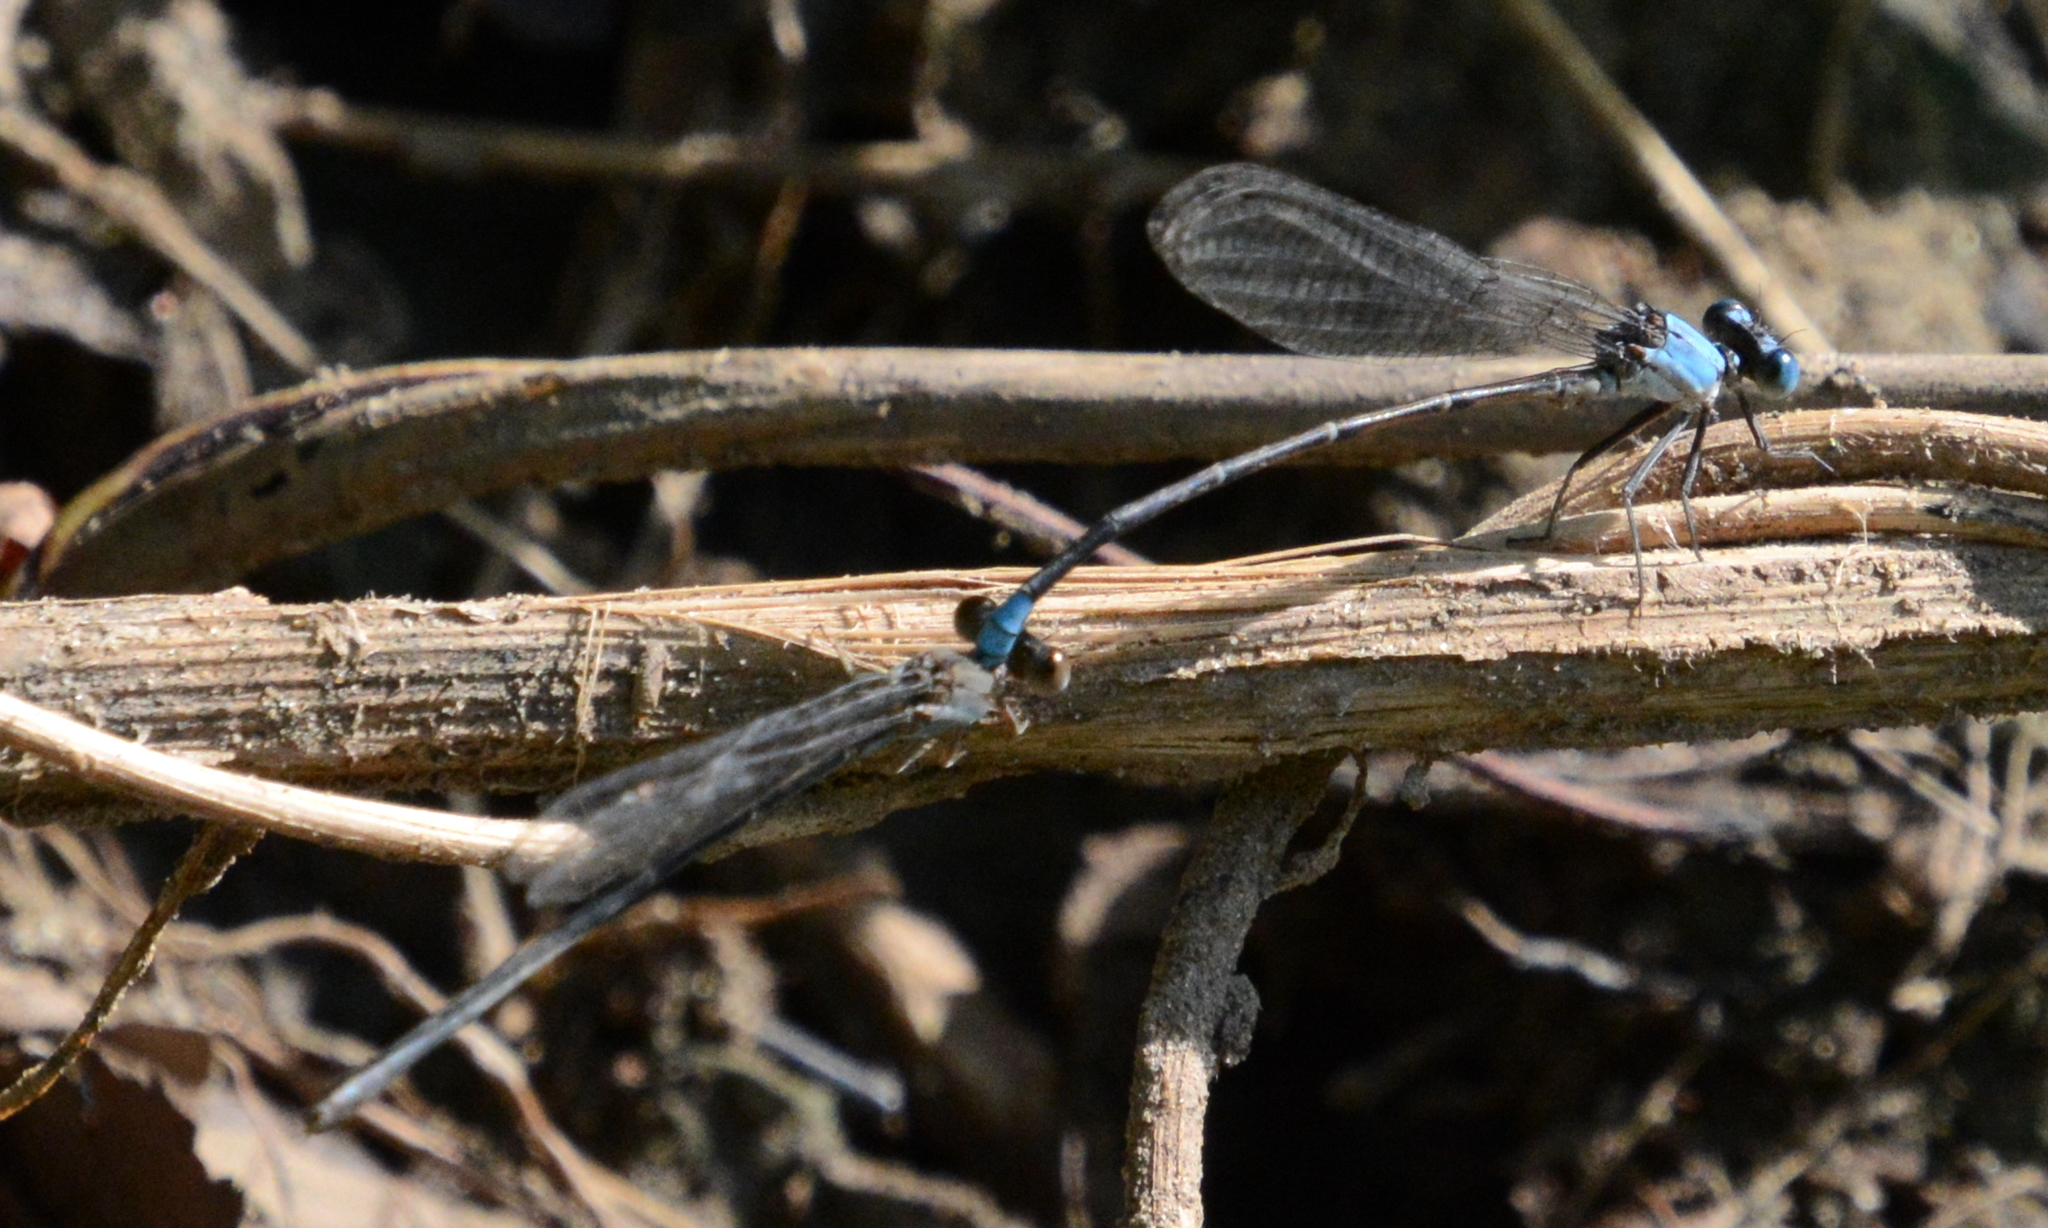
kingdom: Animalia
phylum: Arthropoda
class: Insecta
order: Odonata
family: Coenagrionidae
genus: Argia
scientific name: Argia apicalis
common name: Blue-fronted dancer
